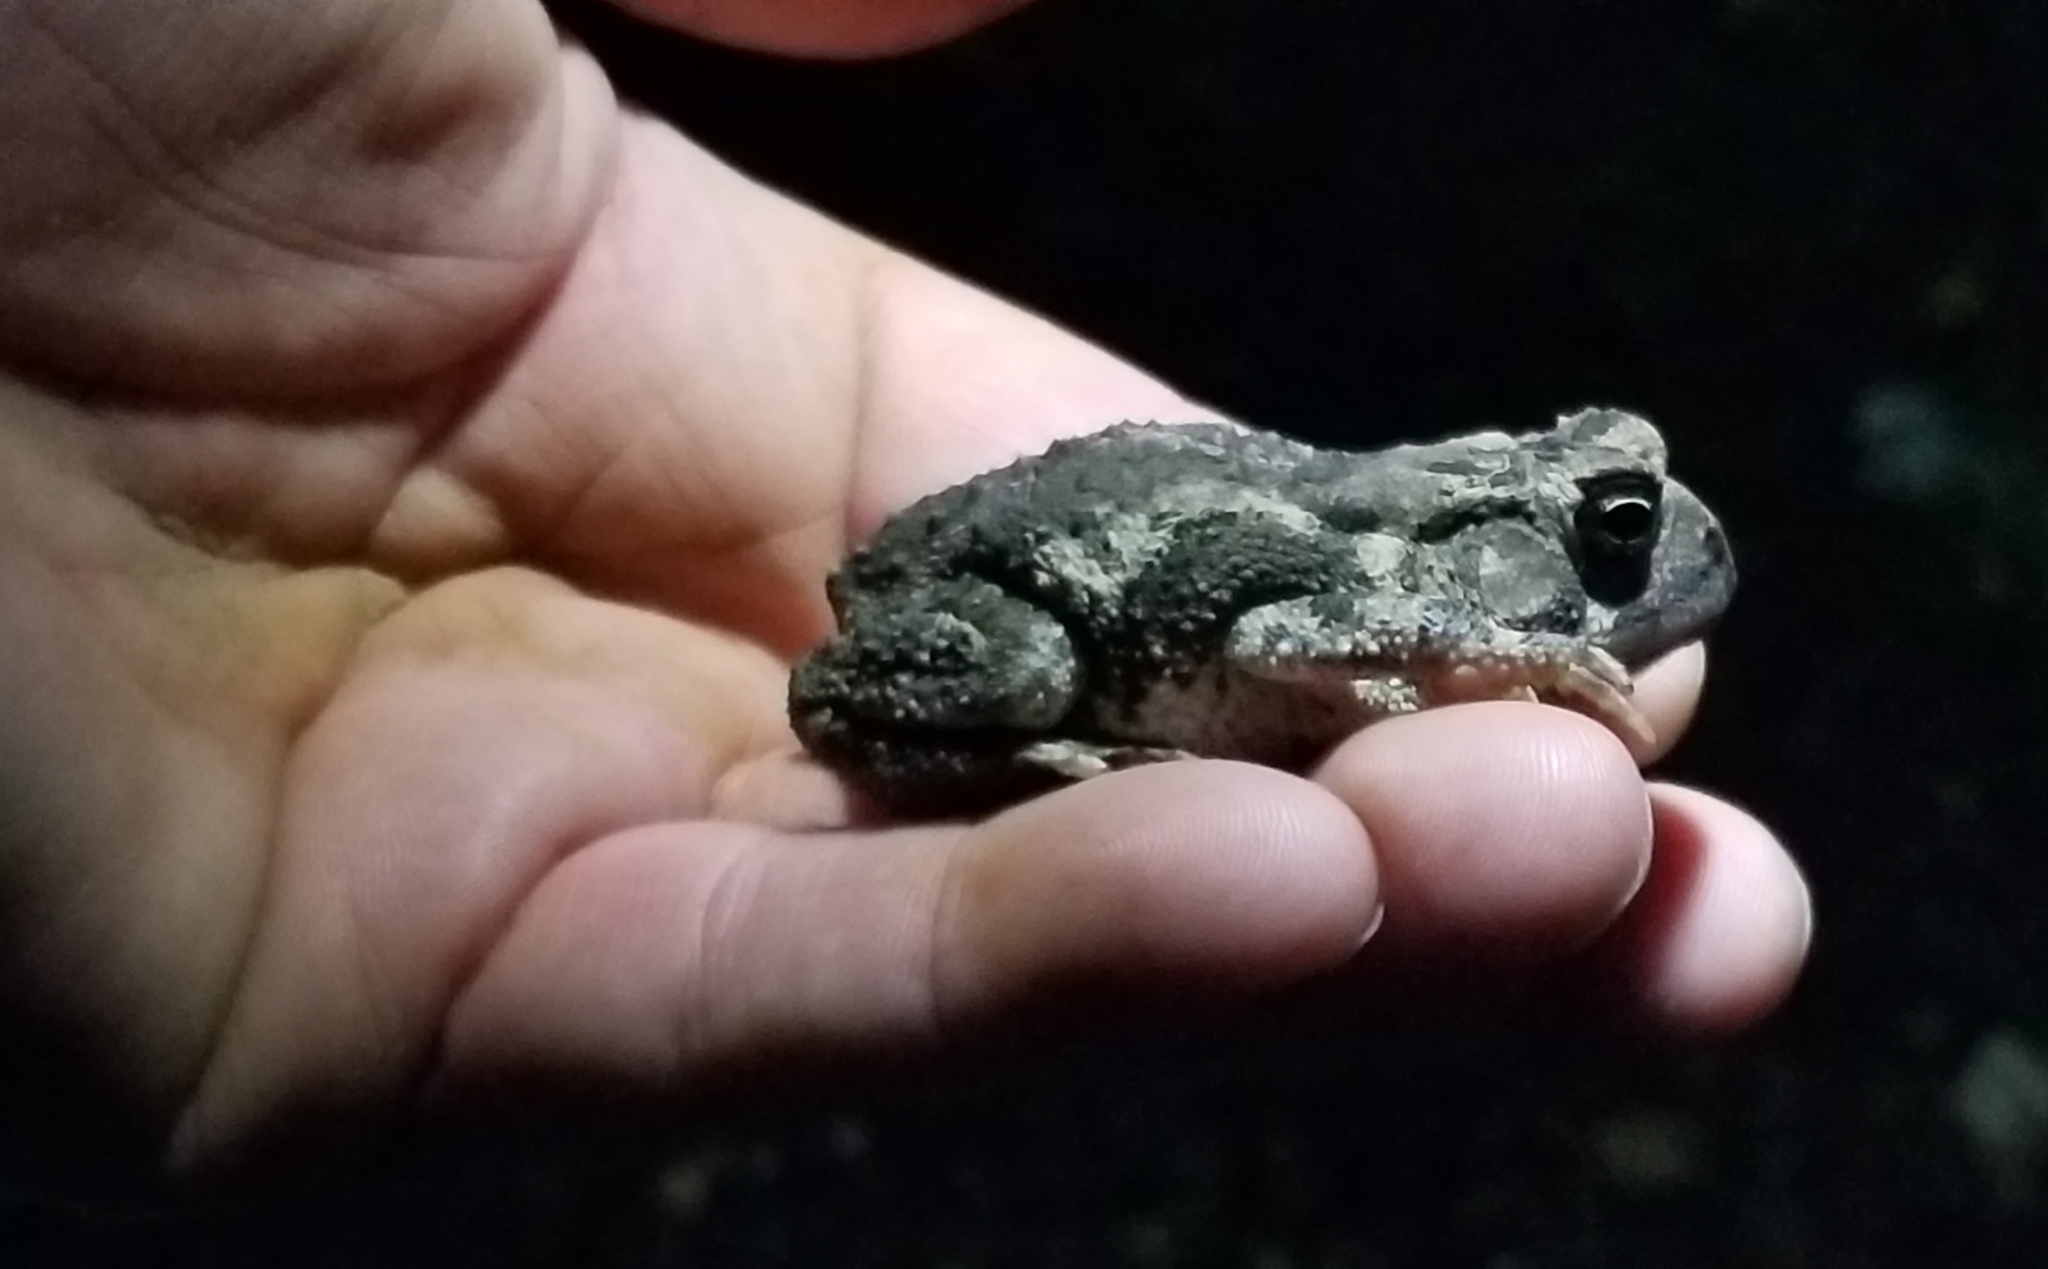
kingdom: Animalia
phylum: Chordata
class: Amphibia
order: Anura
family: Bufonidae
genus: Anaxyrus
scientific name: Anaxyrus fowleri
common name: Fowler's toad
